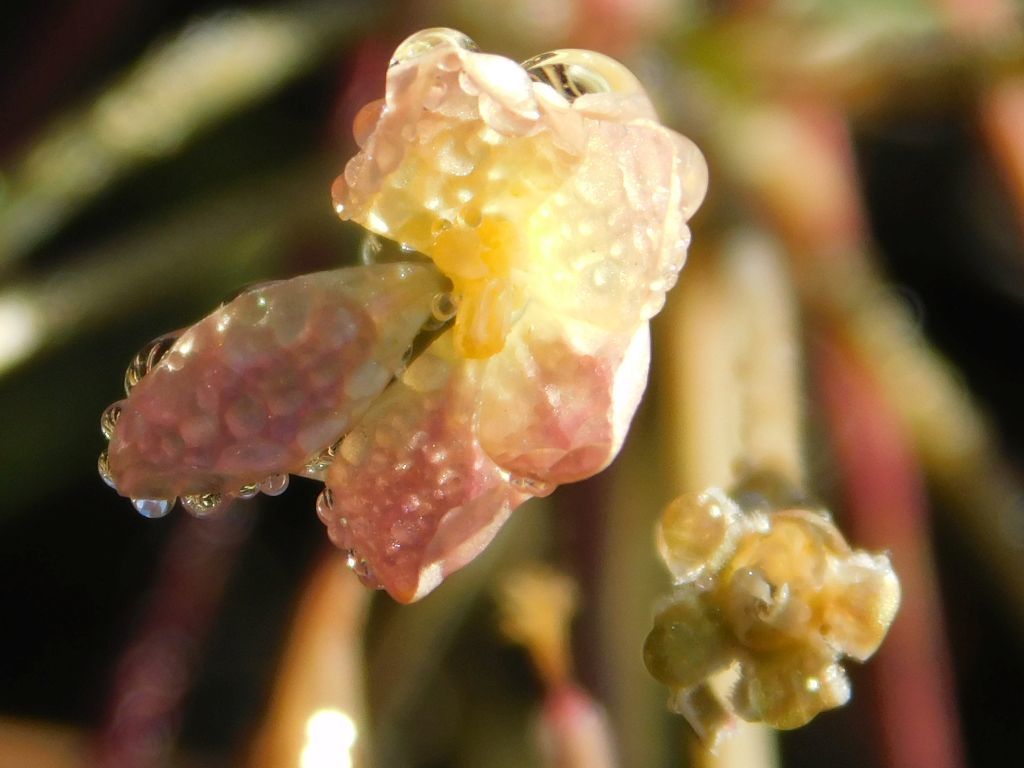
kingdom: Plantae
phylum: Tracheophyta
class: Magnoliopsida
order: Geraniales
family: Geraniaceae
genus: Pelargonium
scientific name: Pelargonium pillansii
